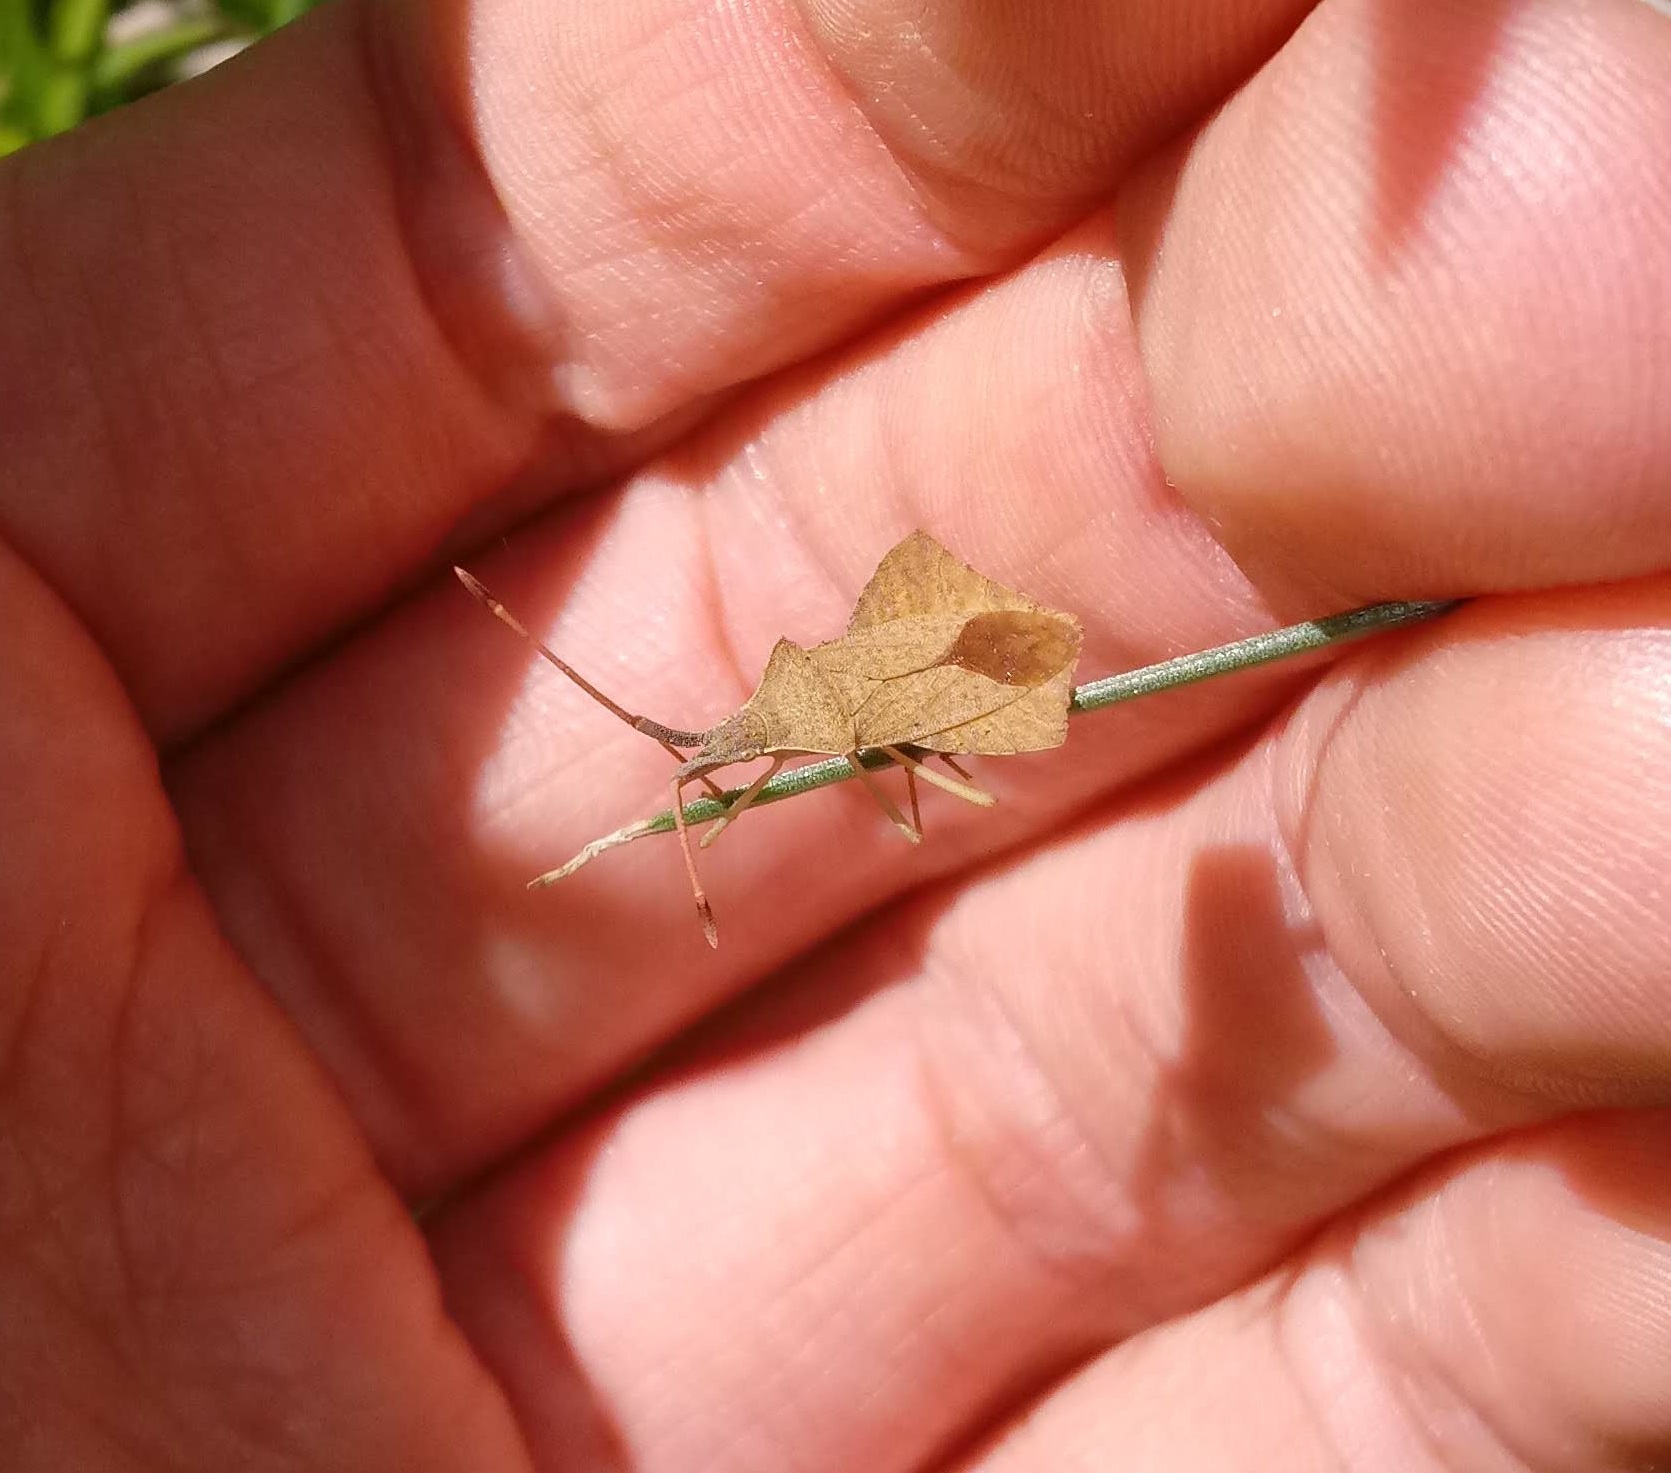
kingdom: Animalia
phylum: Arthropoda
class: Insecta
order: Hemiptera
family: Coreidae
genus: Syromastus
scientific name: Syromastus rhombeus
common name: Rhombic leatherbug
